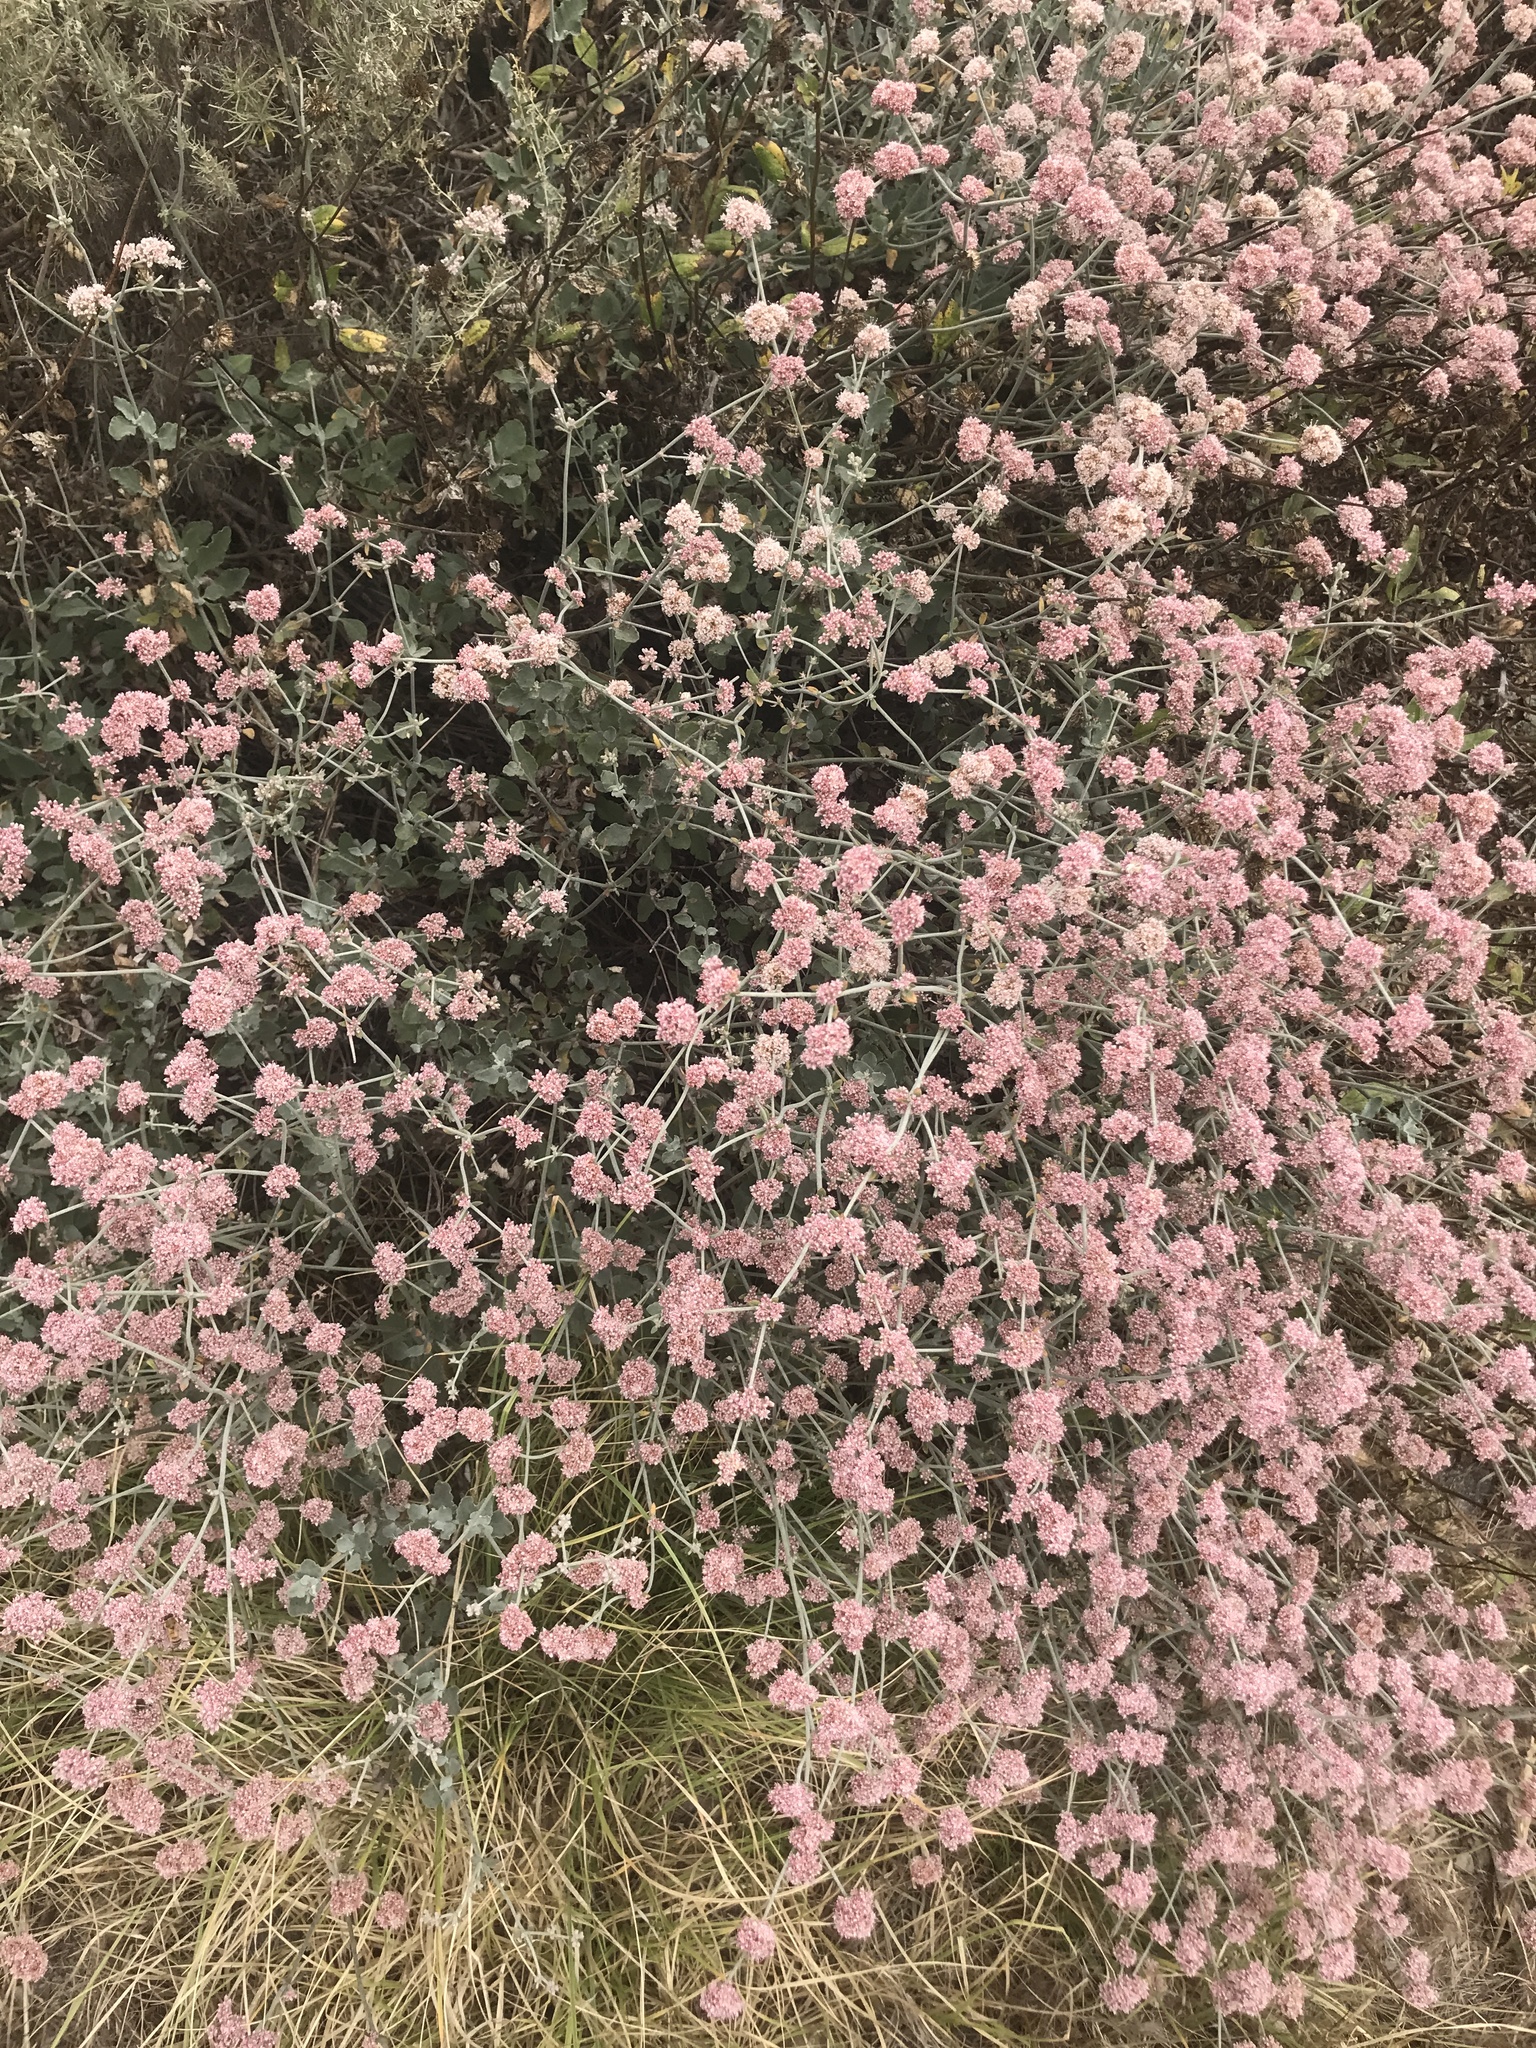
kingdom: Plantae
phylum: Tracheophyta
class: Magnoliopsida
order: Caryophyllales
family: Polygonaceae
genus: Eriogonum
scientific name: Eriogonum cinereum
